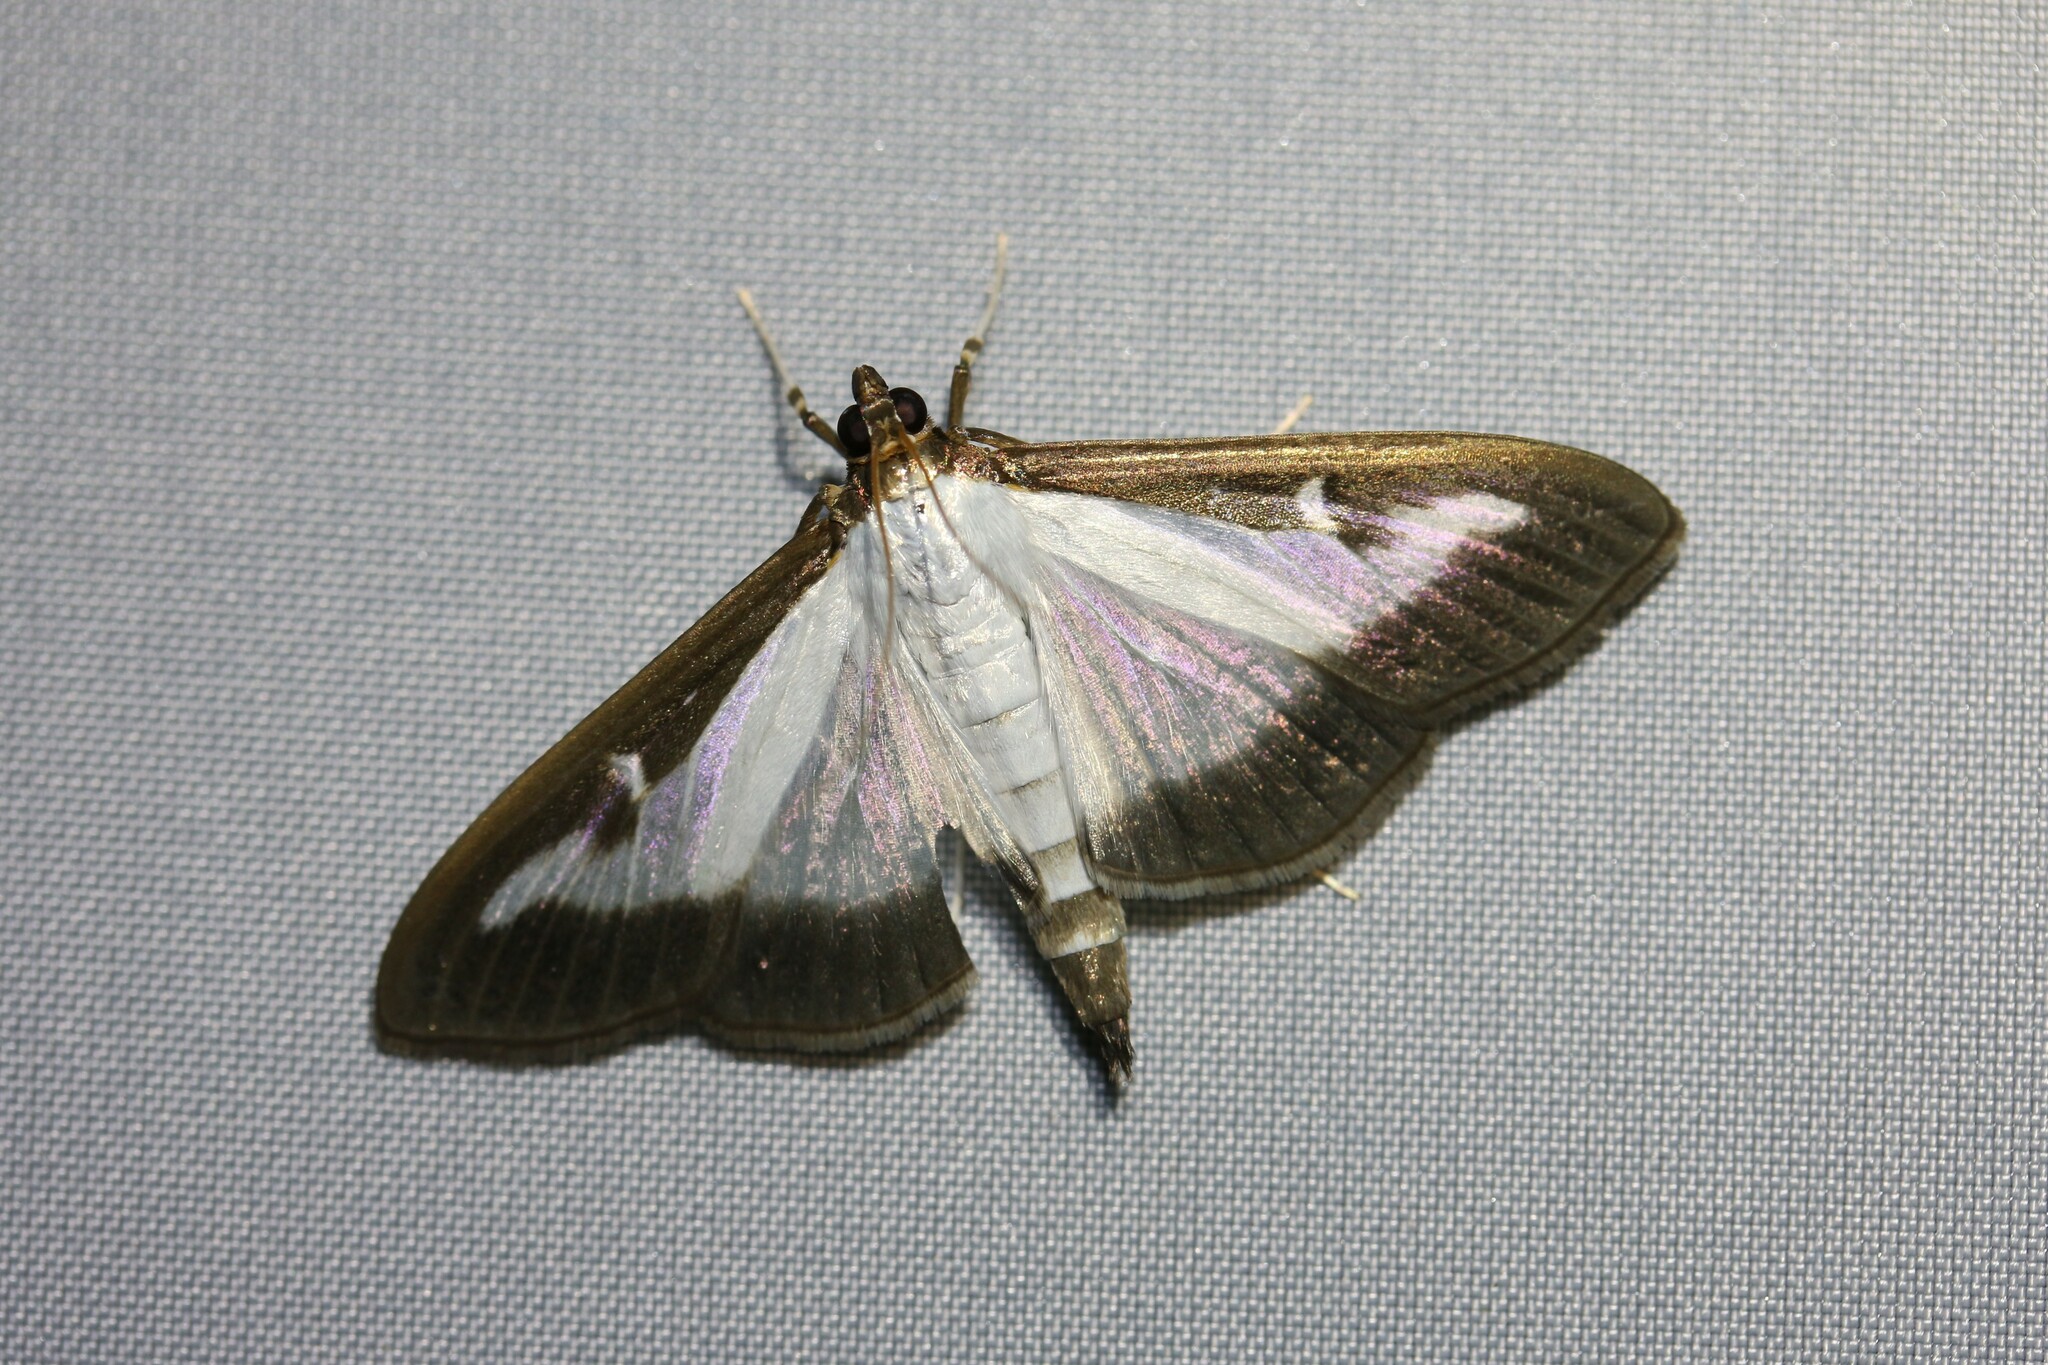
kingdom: Animalia
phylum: Arthropoda
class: Insecta
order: Lepidoptera
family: Crambidae
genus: Cydalima
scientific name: Cydalima perspectalis
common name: Box tree moth
